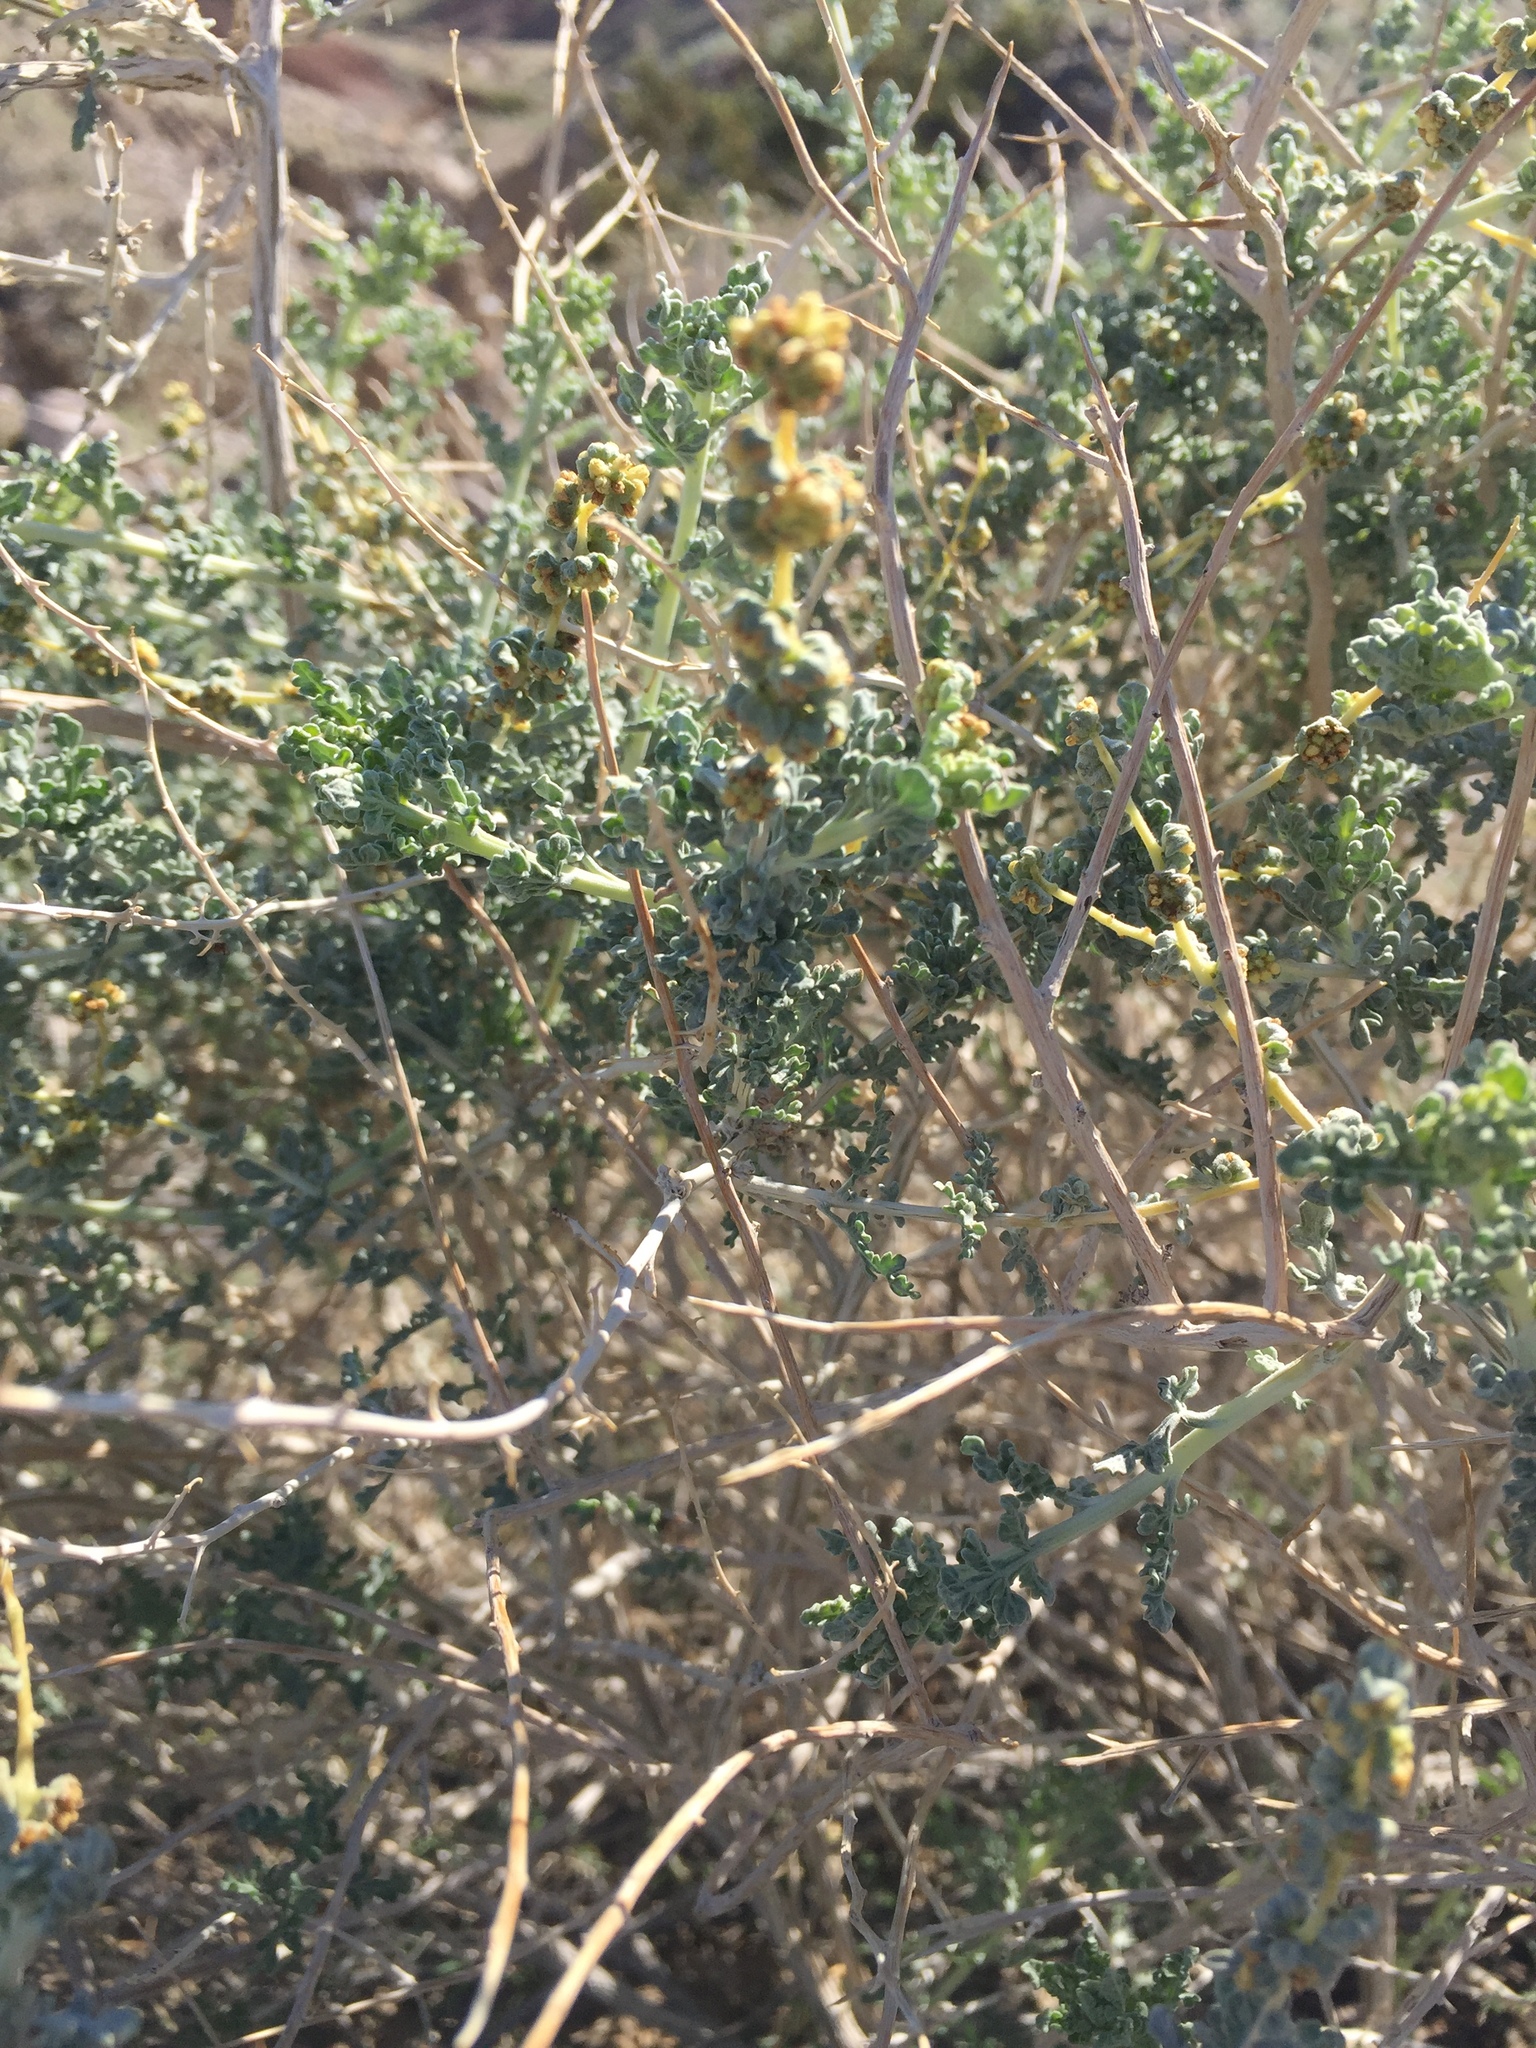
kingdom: Plantae
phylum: Tracheophyta
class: Magnoliopsida
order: Asterales
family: Asteraceae
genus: Ambrosia
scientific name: Ambrosia dumosa
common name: Bur-sage
